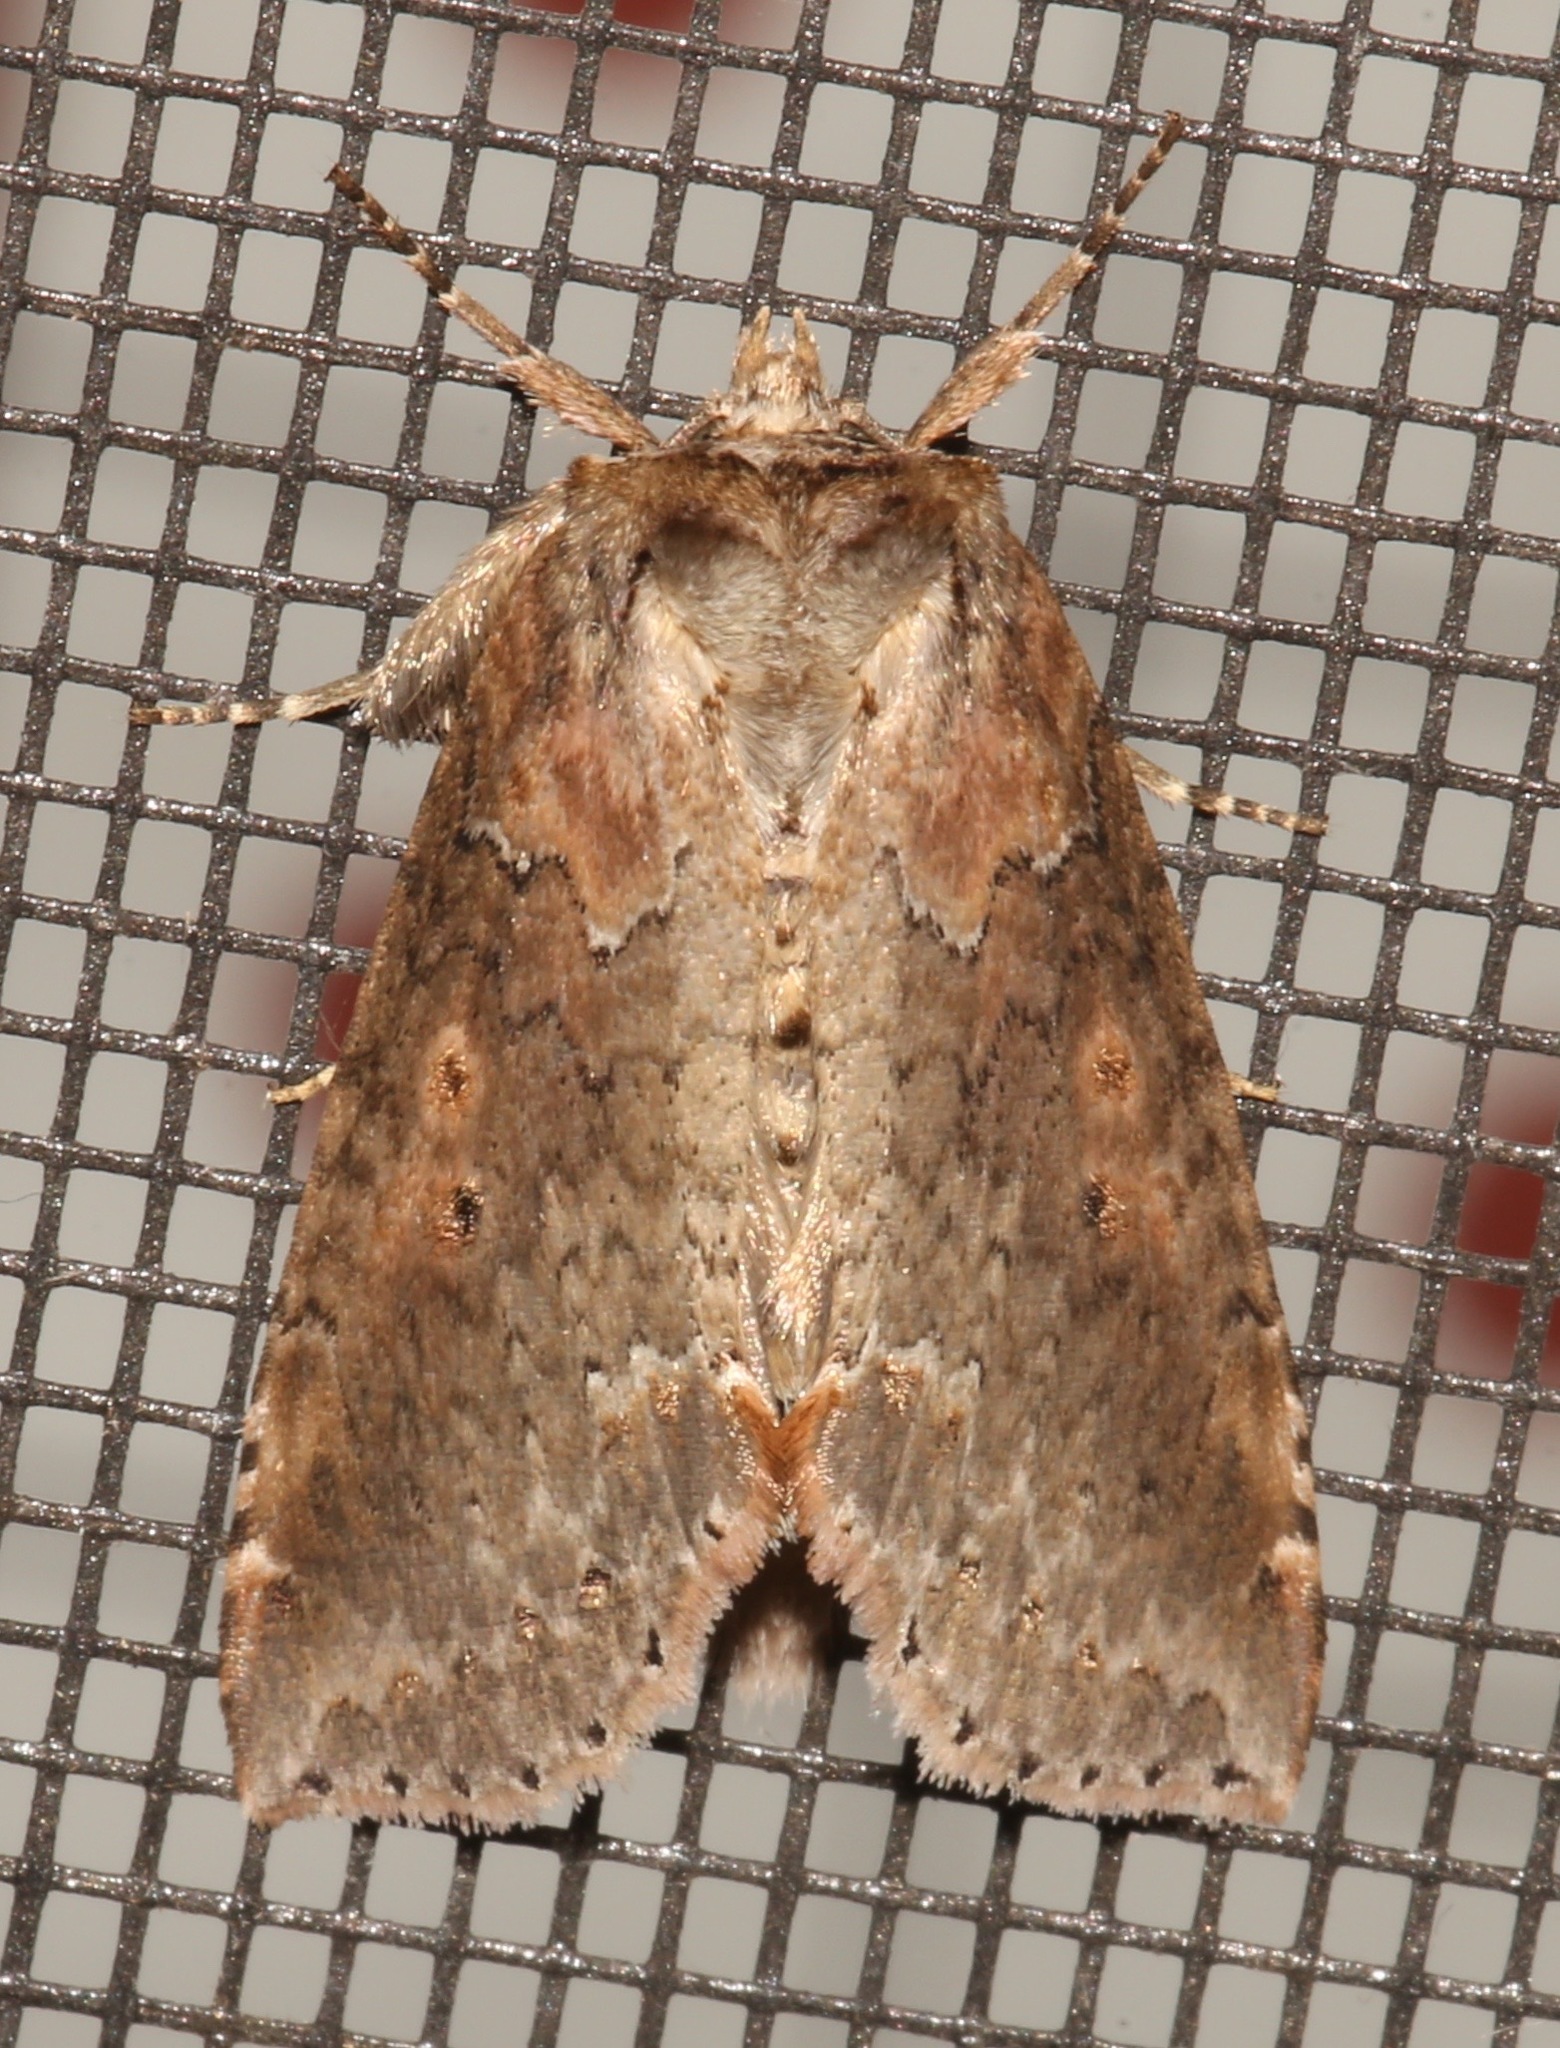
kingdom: Animalia
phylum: Arthropoda
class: Insecta
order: Lepidoptera
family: Drepanidae
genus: Pseudothyatira
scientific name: Pseudothyatira cymatophoroides
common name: Tufted thyatirid moth
